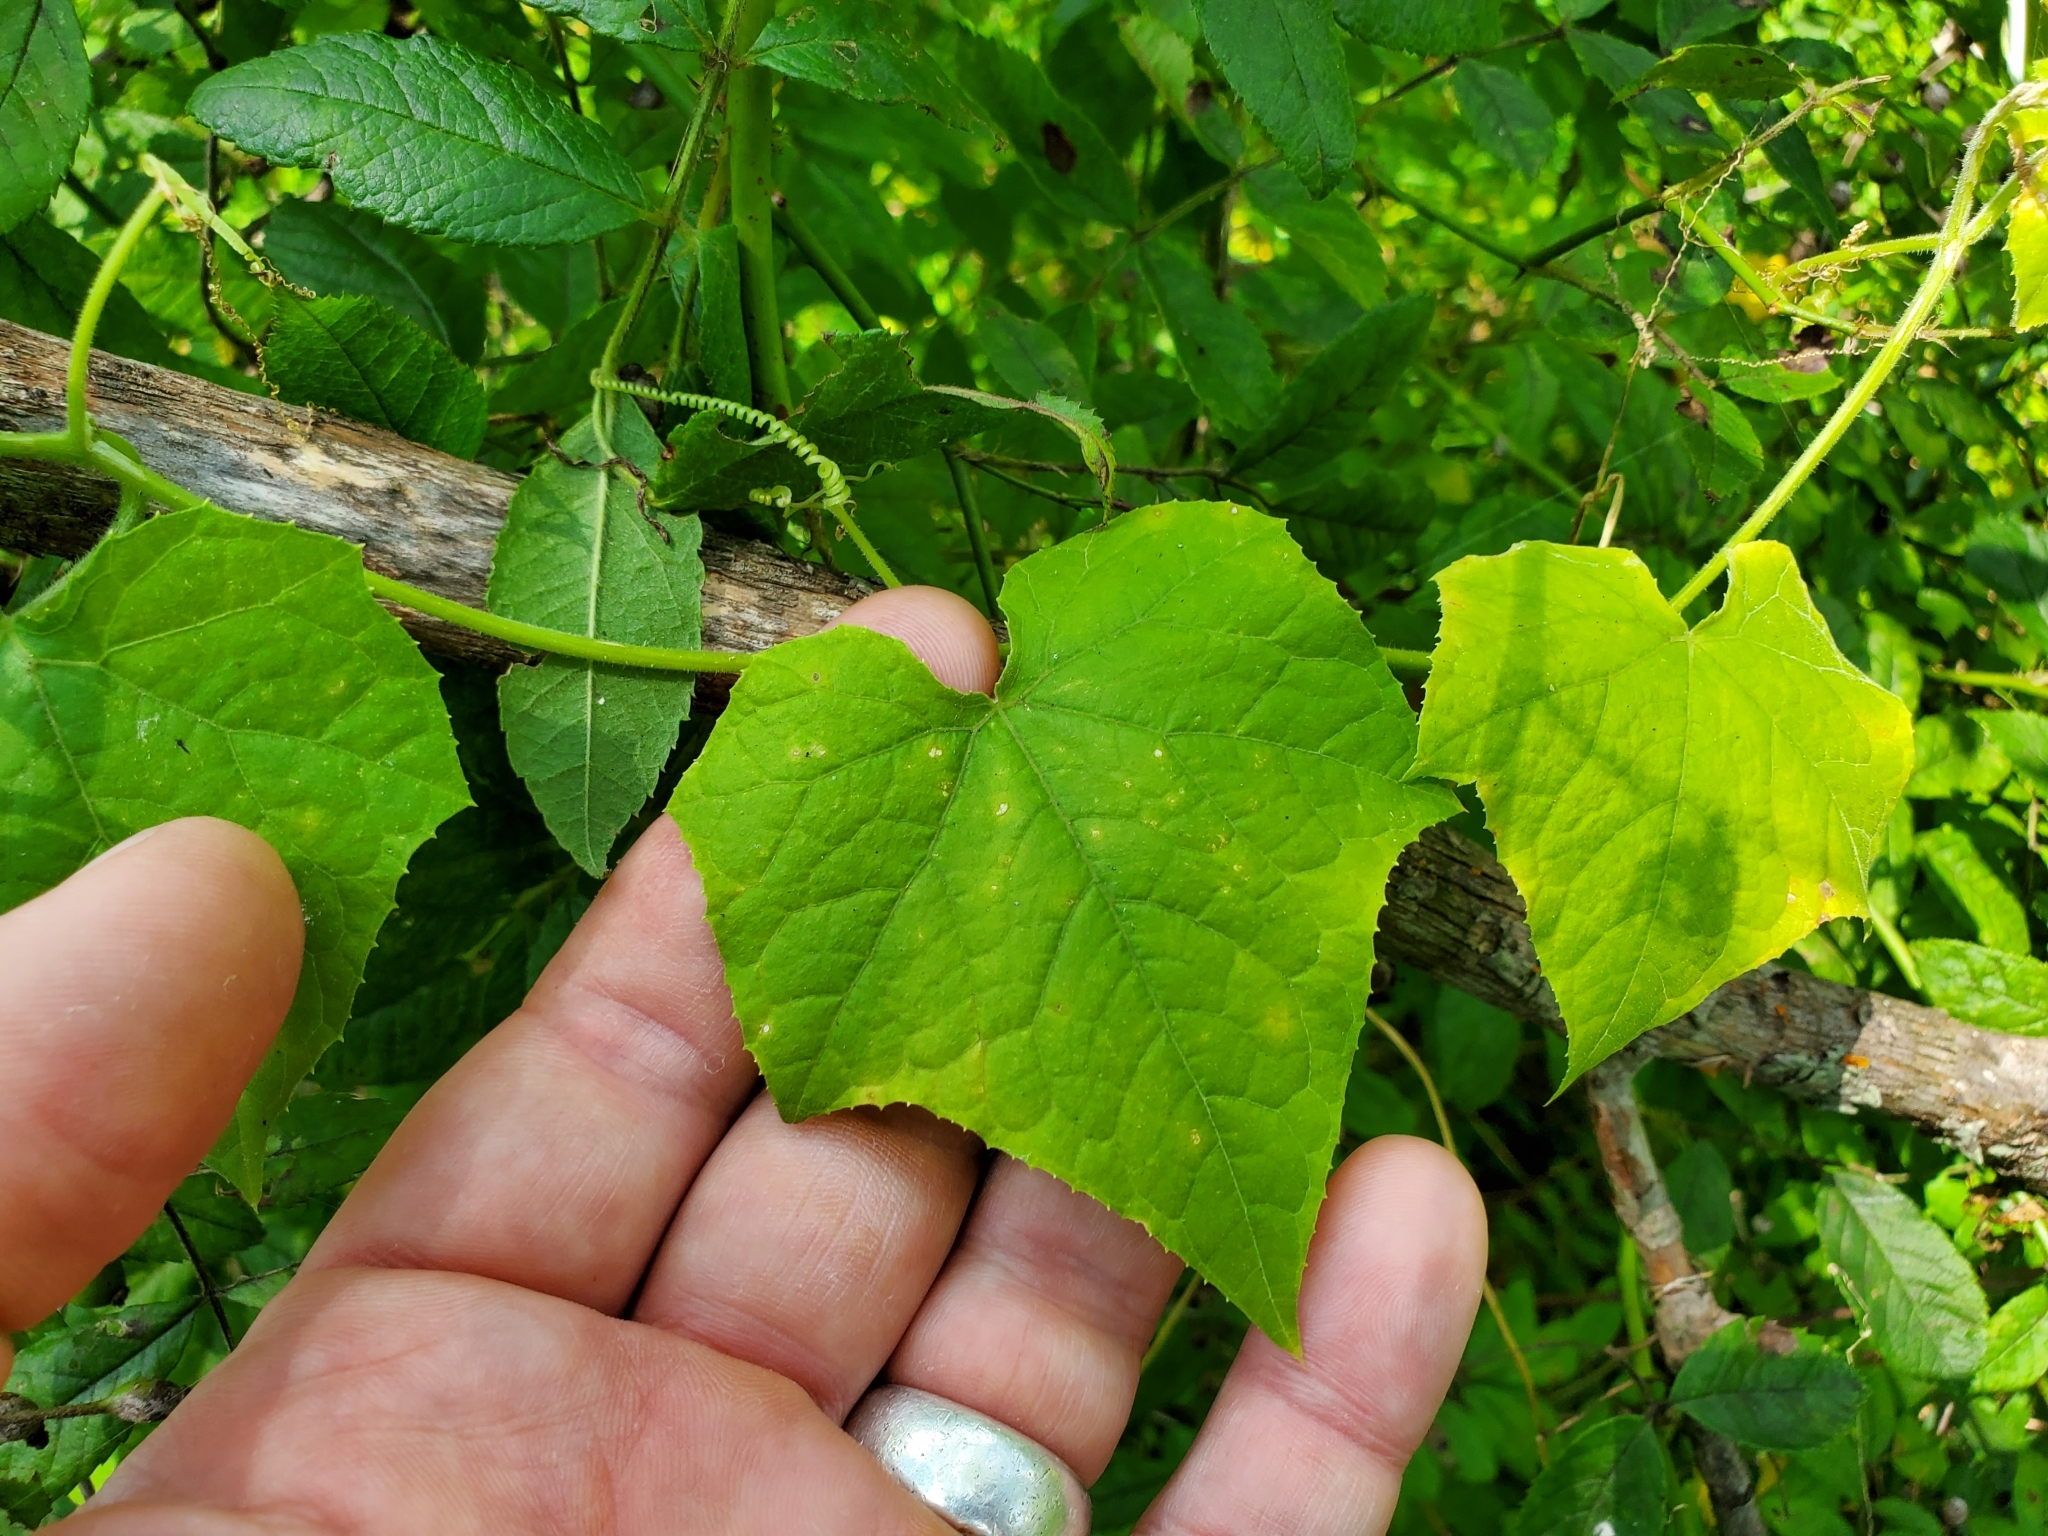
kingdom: Plantae
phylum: Tracheophyta
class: Magnoliopsida
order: Cucurbitales
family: Cucurbitaceae
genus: Sicyos
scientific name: Sicyos angulatus
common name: Angled burr cucumber
